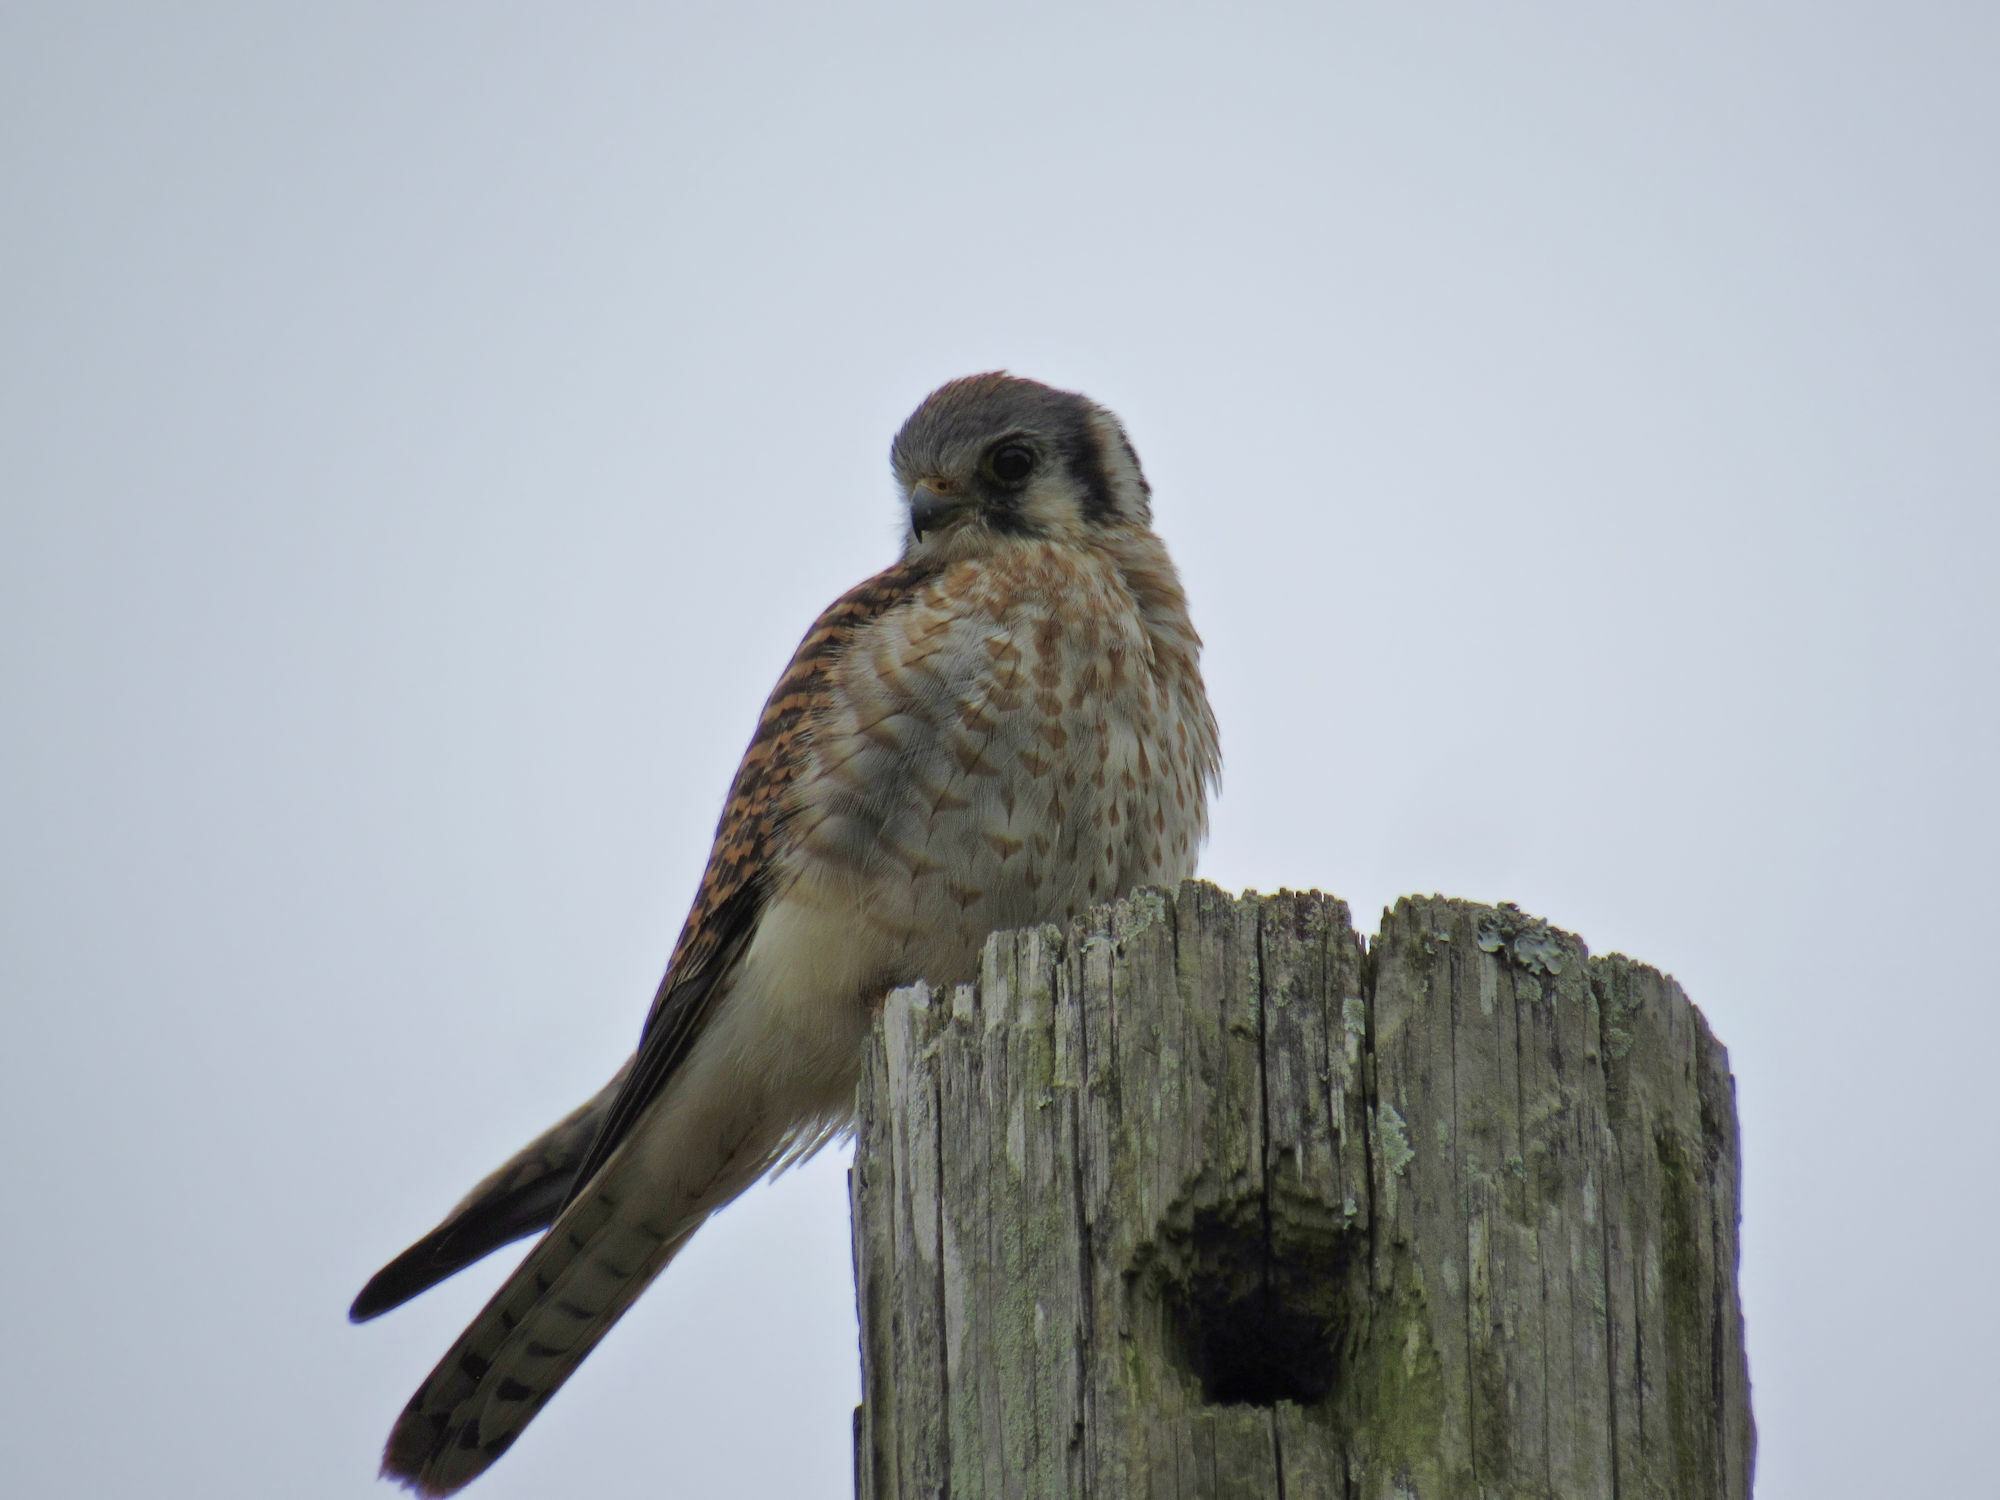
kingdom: Animalia
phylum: Chordata
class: Aves
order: Falconiformes
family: Falconidae
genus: Falco
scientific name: Falco sparverius
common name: American kestrel
